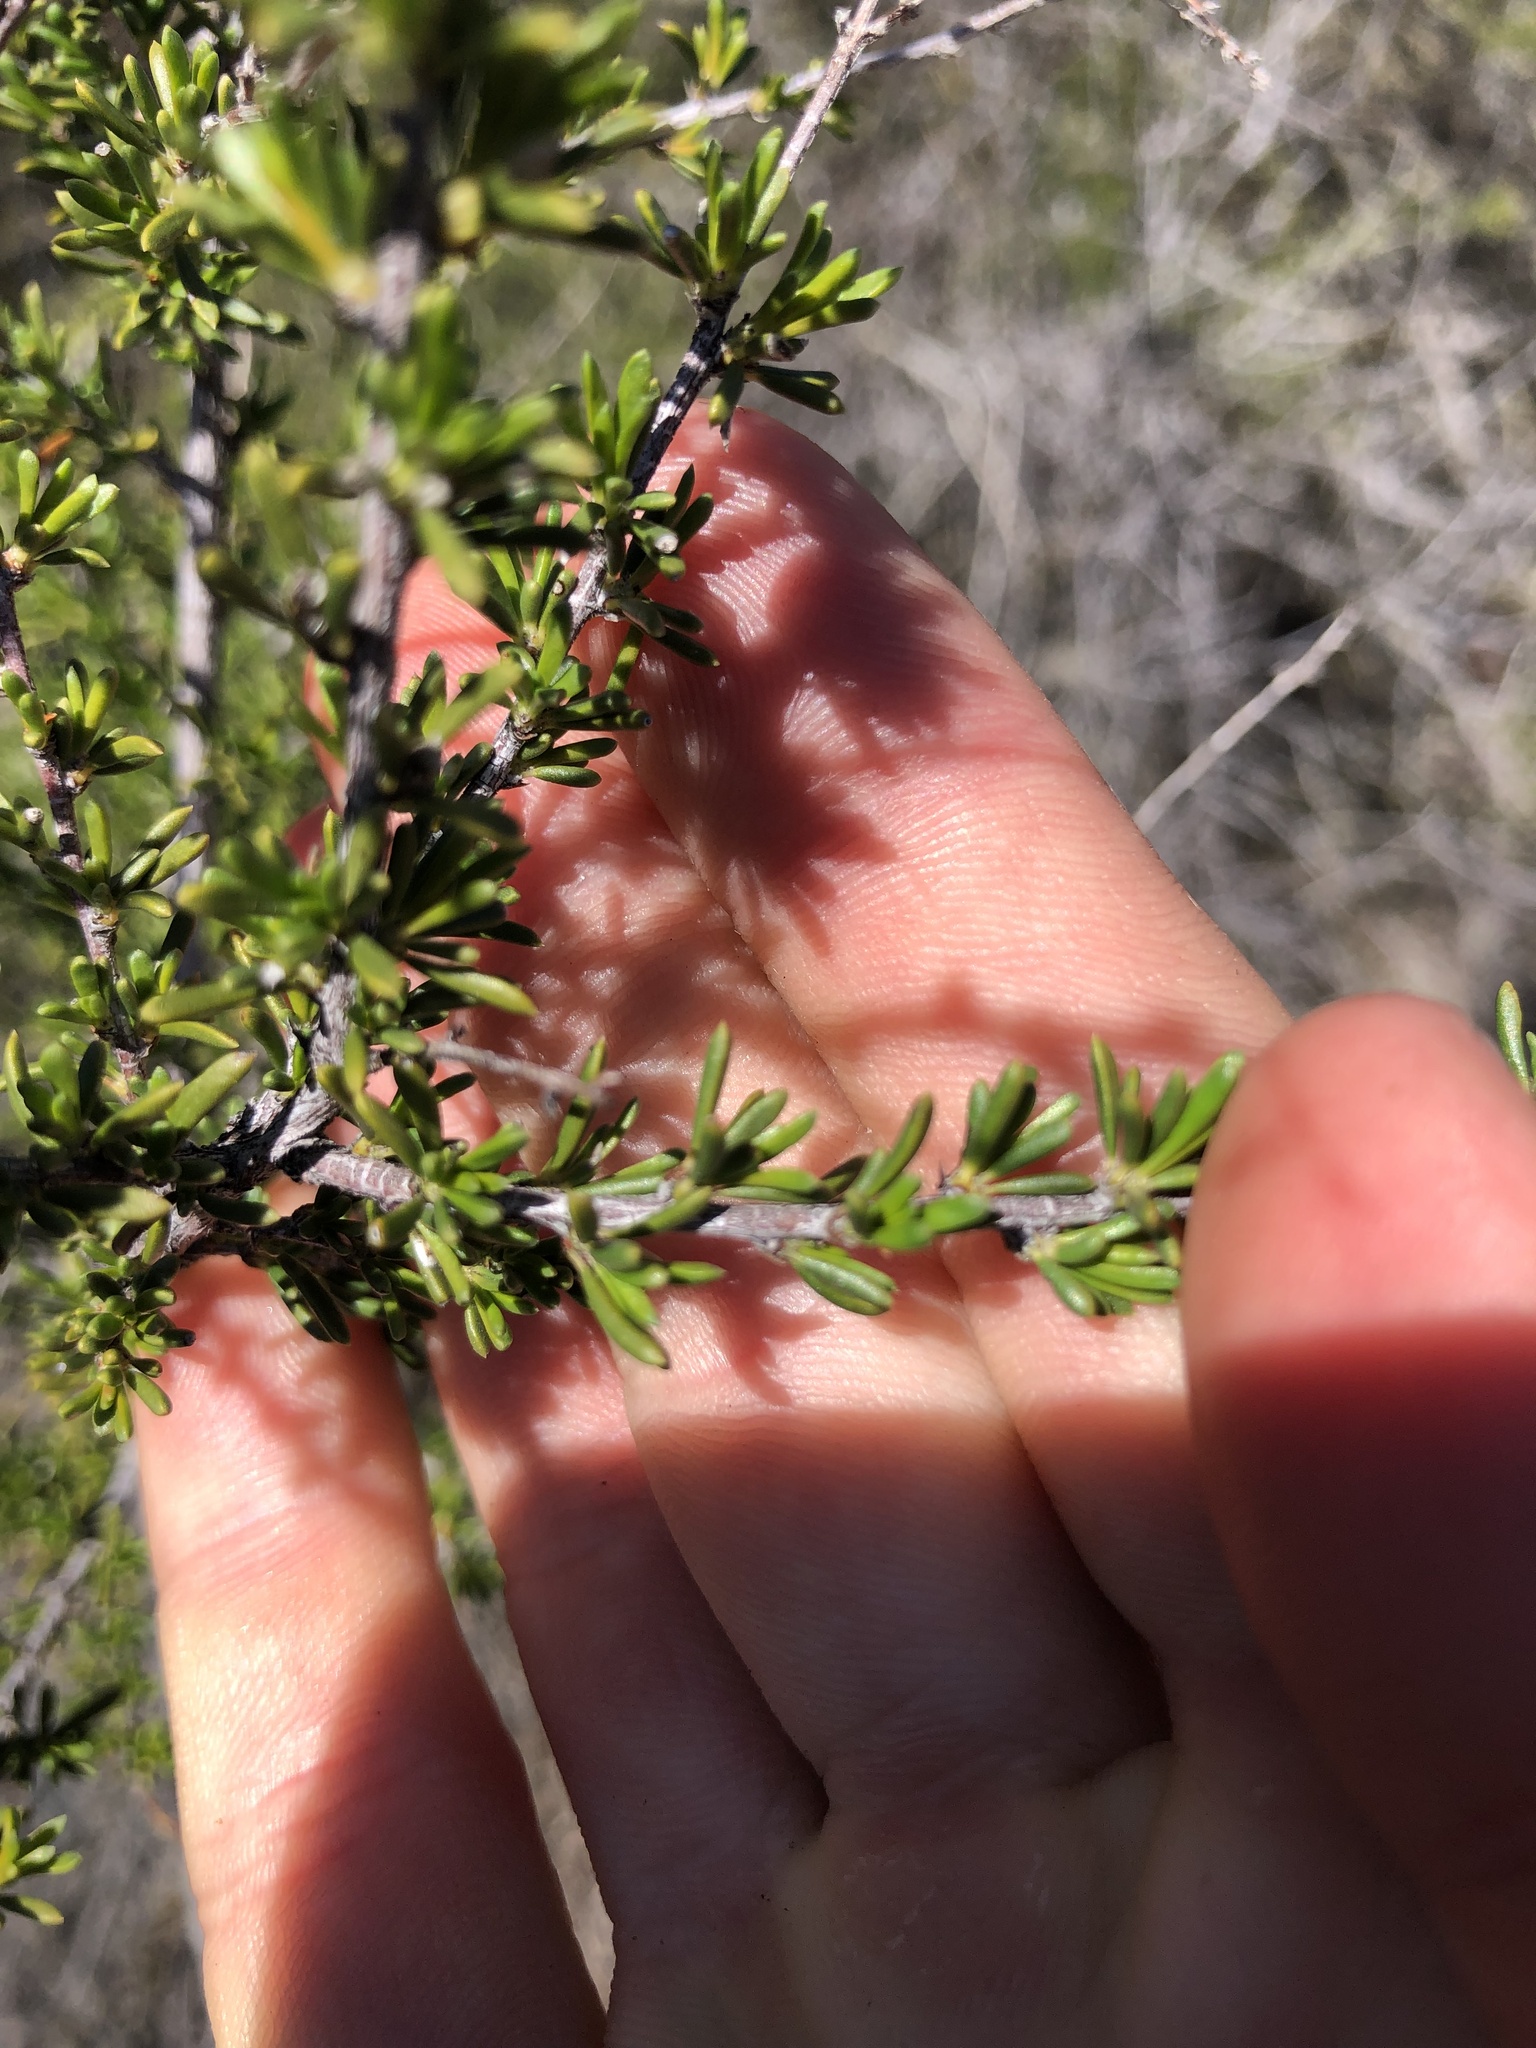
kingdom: Plantae
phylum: Tracheophyta
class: Magnoliopsida
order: Rosales
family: Rosaceae
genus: Adenostoma
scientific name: Adenostoma fasciculatum
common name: Chamise
